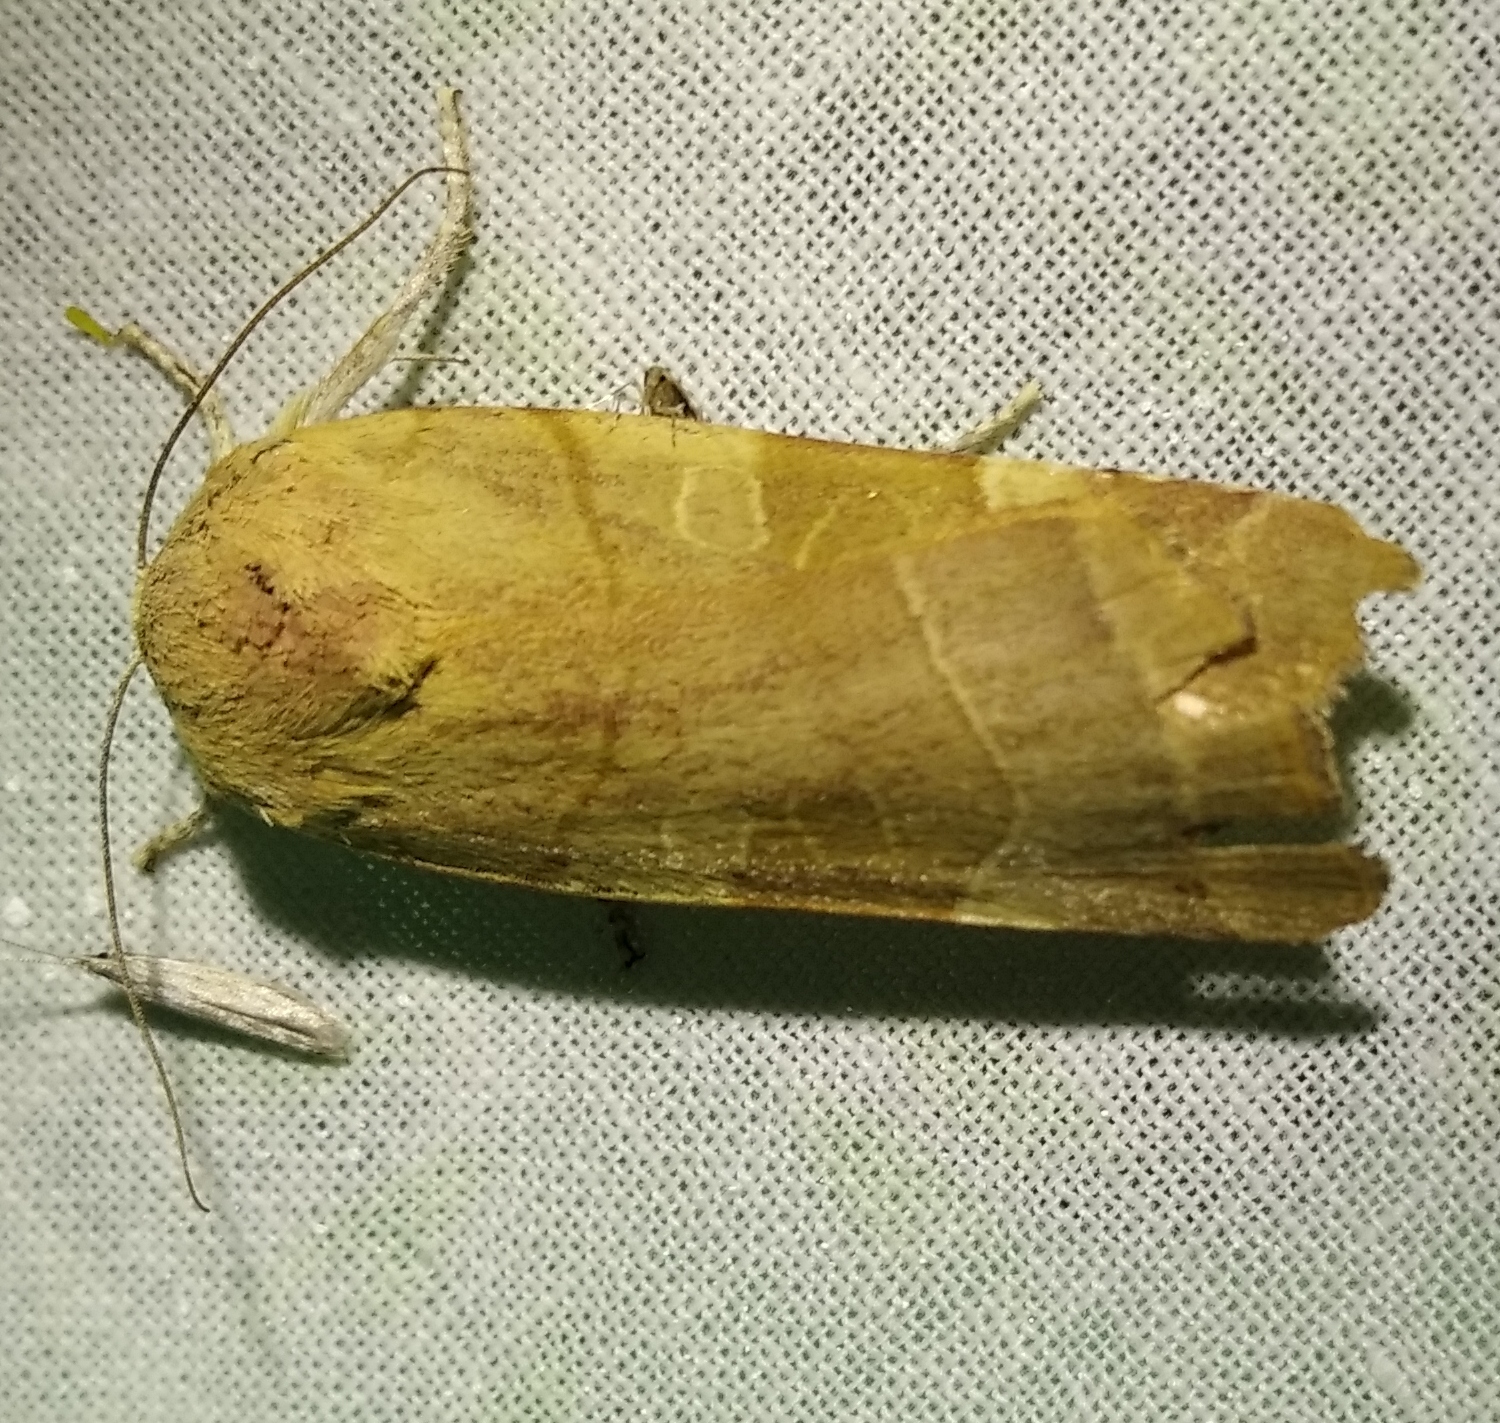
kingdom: Animalia
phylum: Arthropoda
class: Insecta
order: Lepidoptera
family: Noctuidae
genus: Noctua
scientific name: Noctua fimbriata
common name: Broad-bordered yellow underwing
